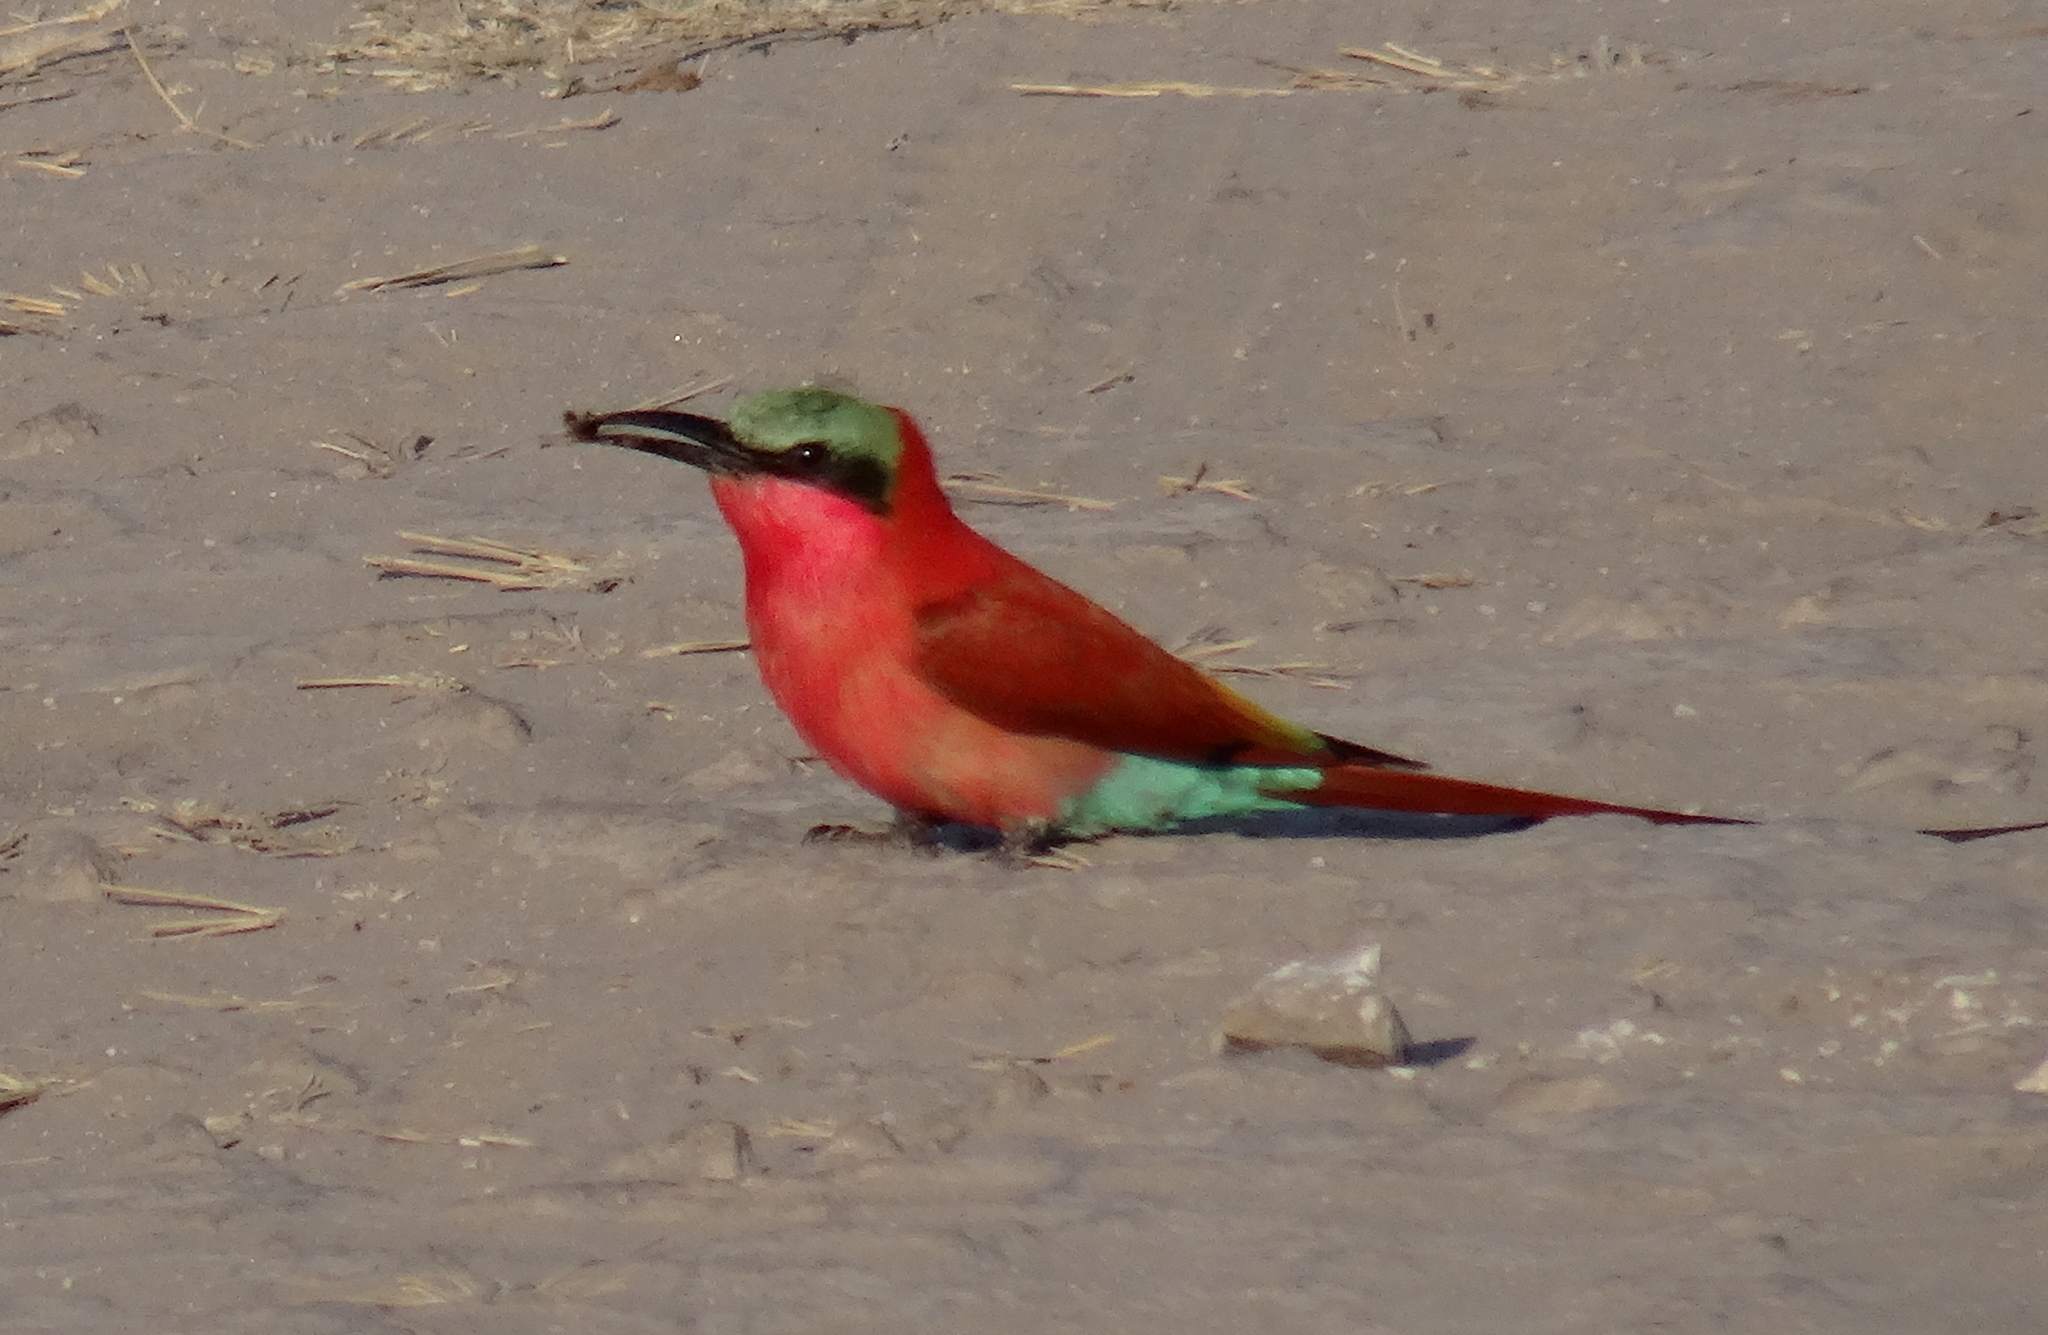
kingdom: Animalia
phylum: Chordata
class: Aves
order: Coraciiformes
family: Meropidae
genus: Merops
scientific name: Merops nubicoides
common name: Southern carmine bee-eater
